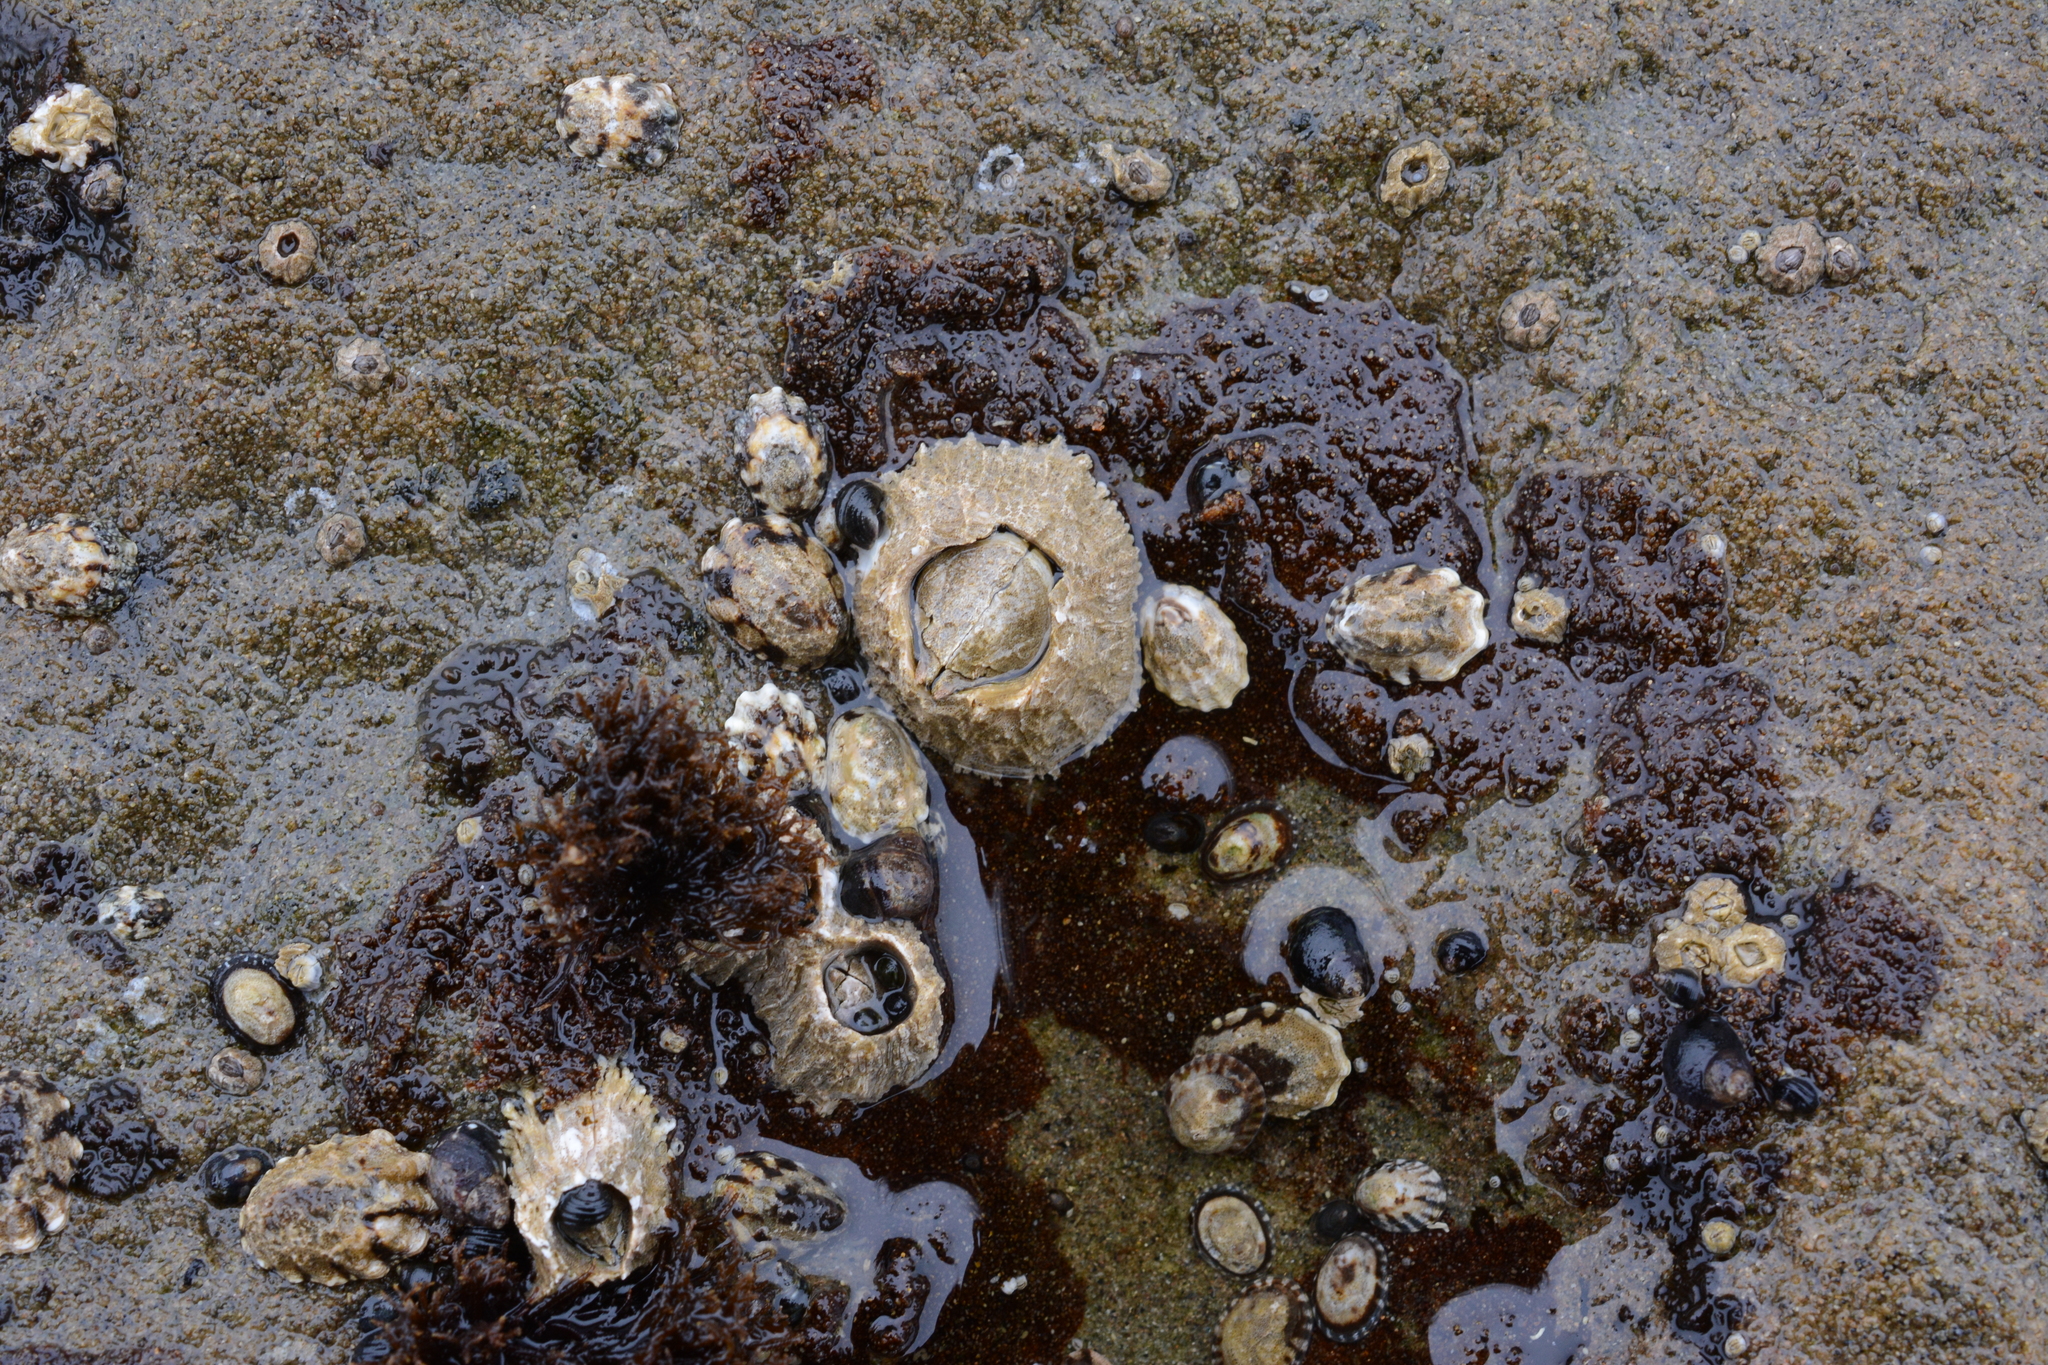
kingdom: Animalia
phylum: Arthropoda
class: Maxillopoda
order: Sessilia
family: Archaeobalanidae
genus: Semibalanus
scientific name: Semibalanus cariosus
